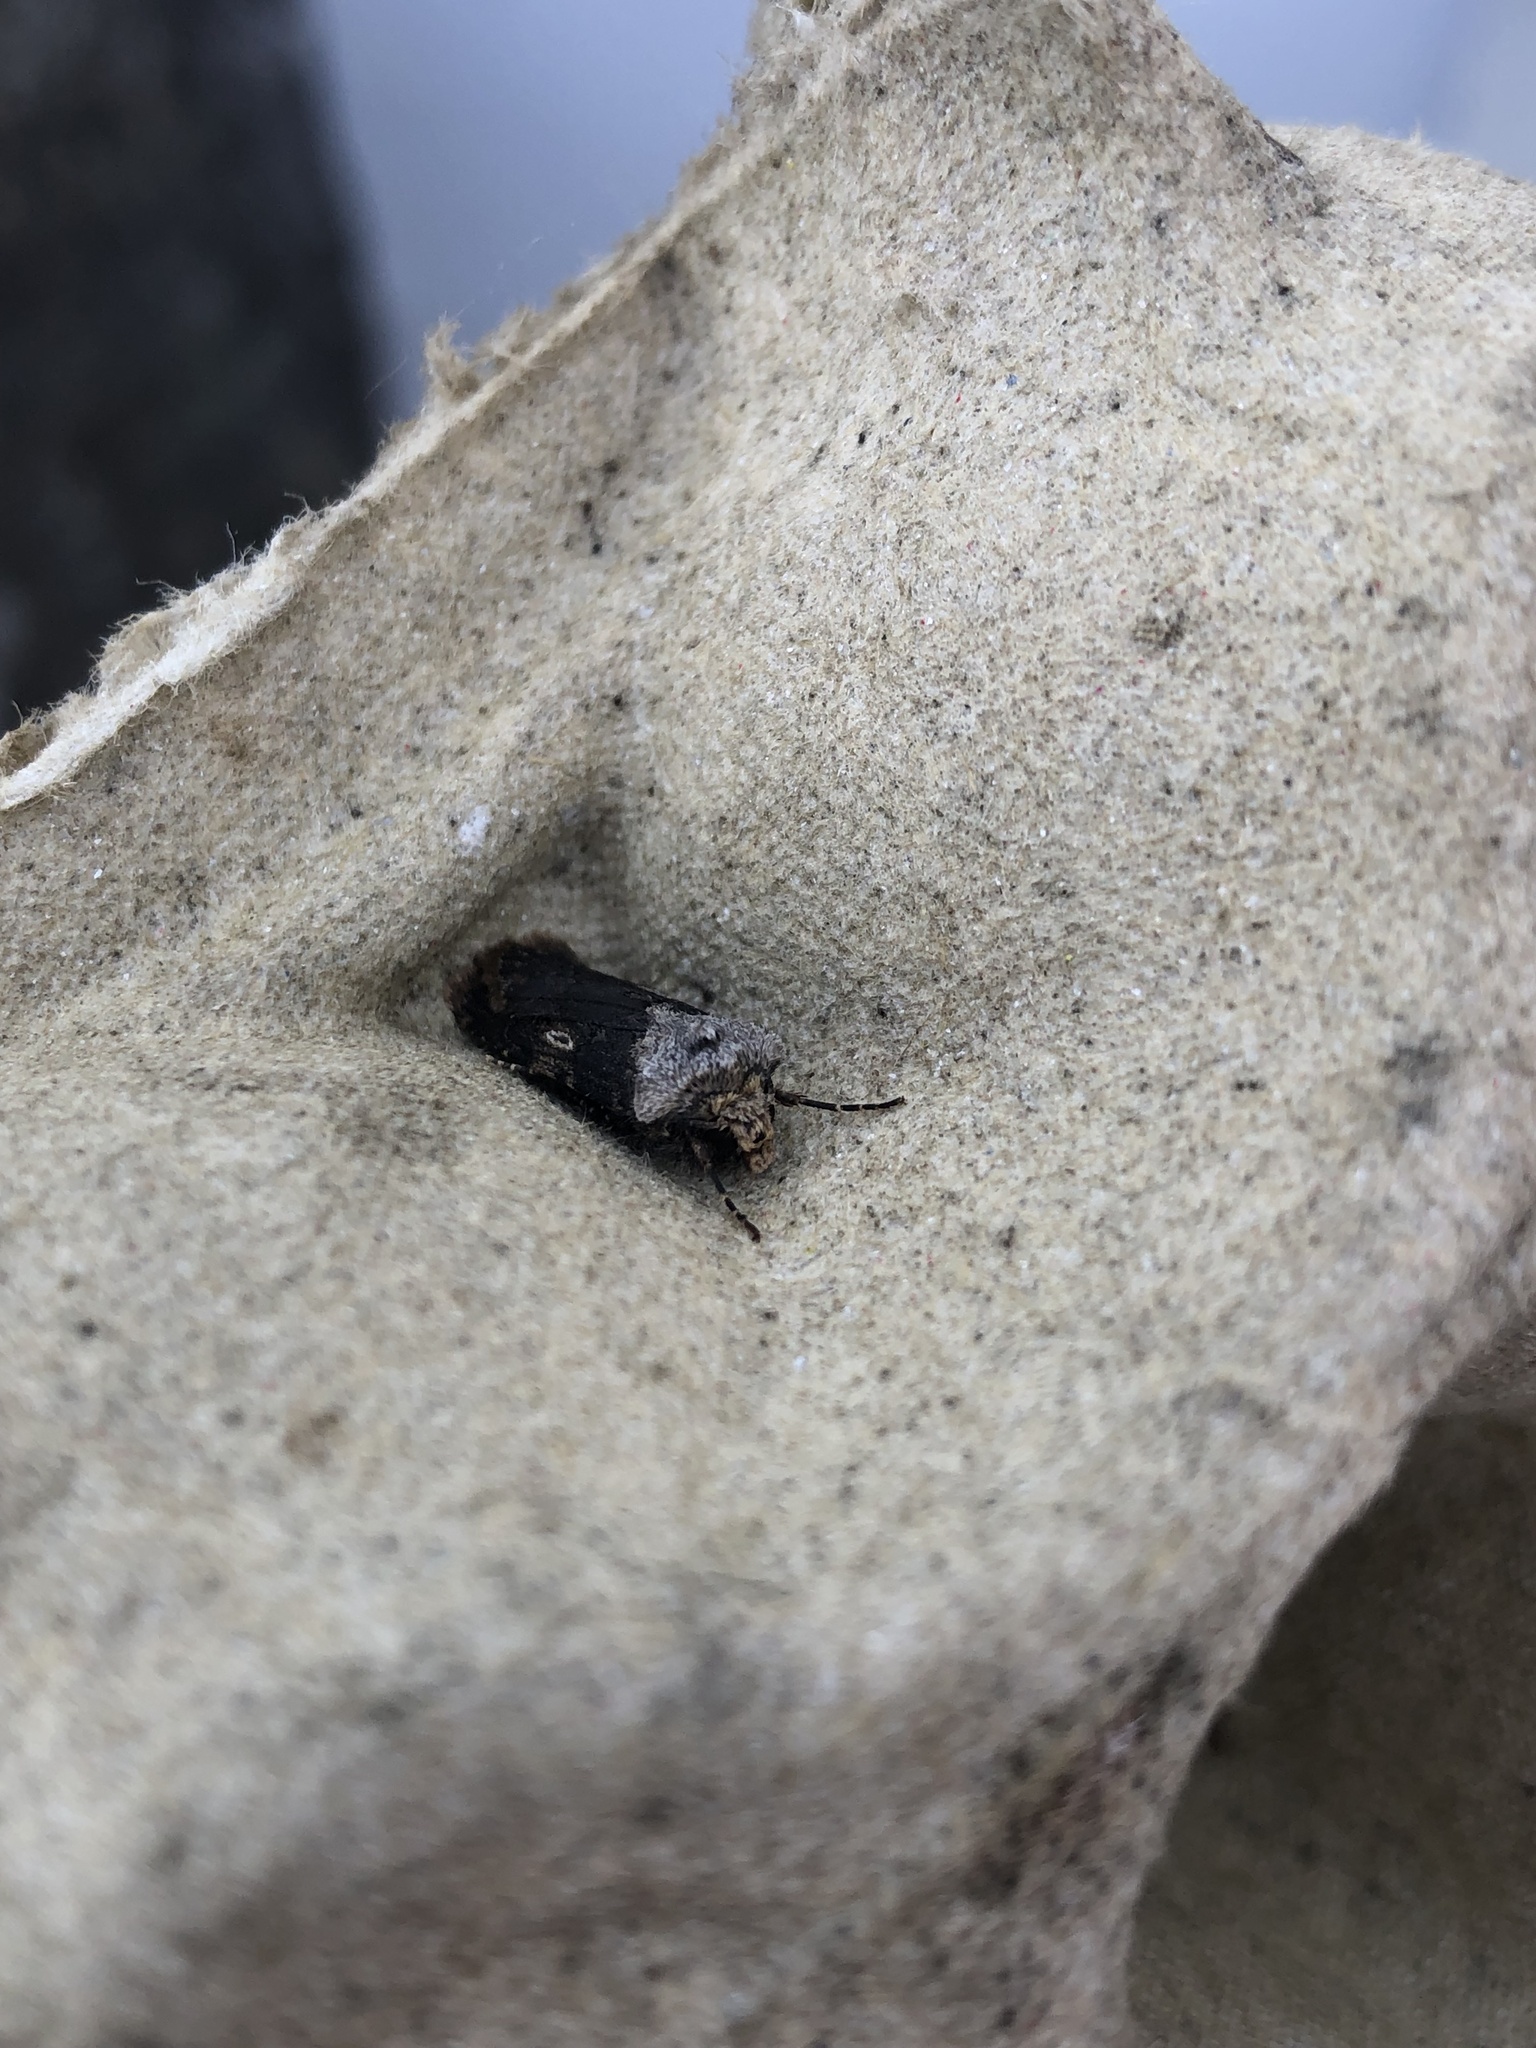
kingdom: Animalia
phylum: Arthropoda
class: Insecta
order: Lepidoptera
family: Noctuidae
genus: Agrotis
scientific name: Agrotis puta
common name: Shuttle-shaped dart
